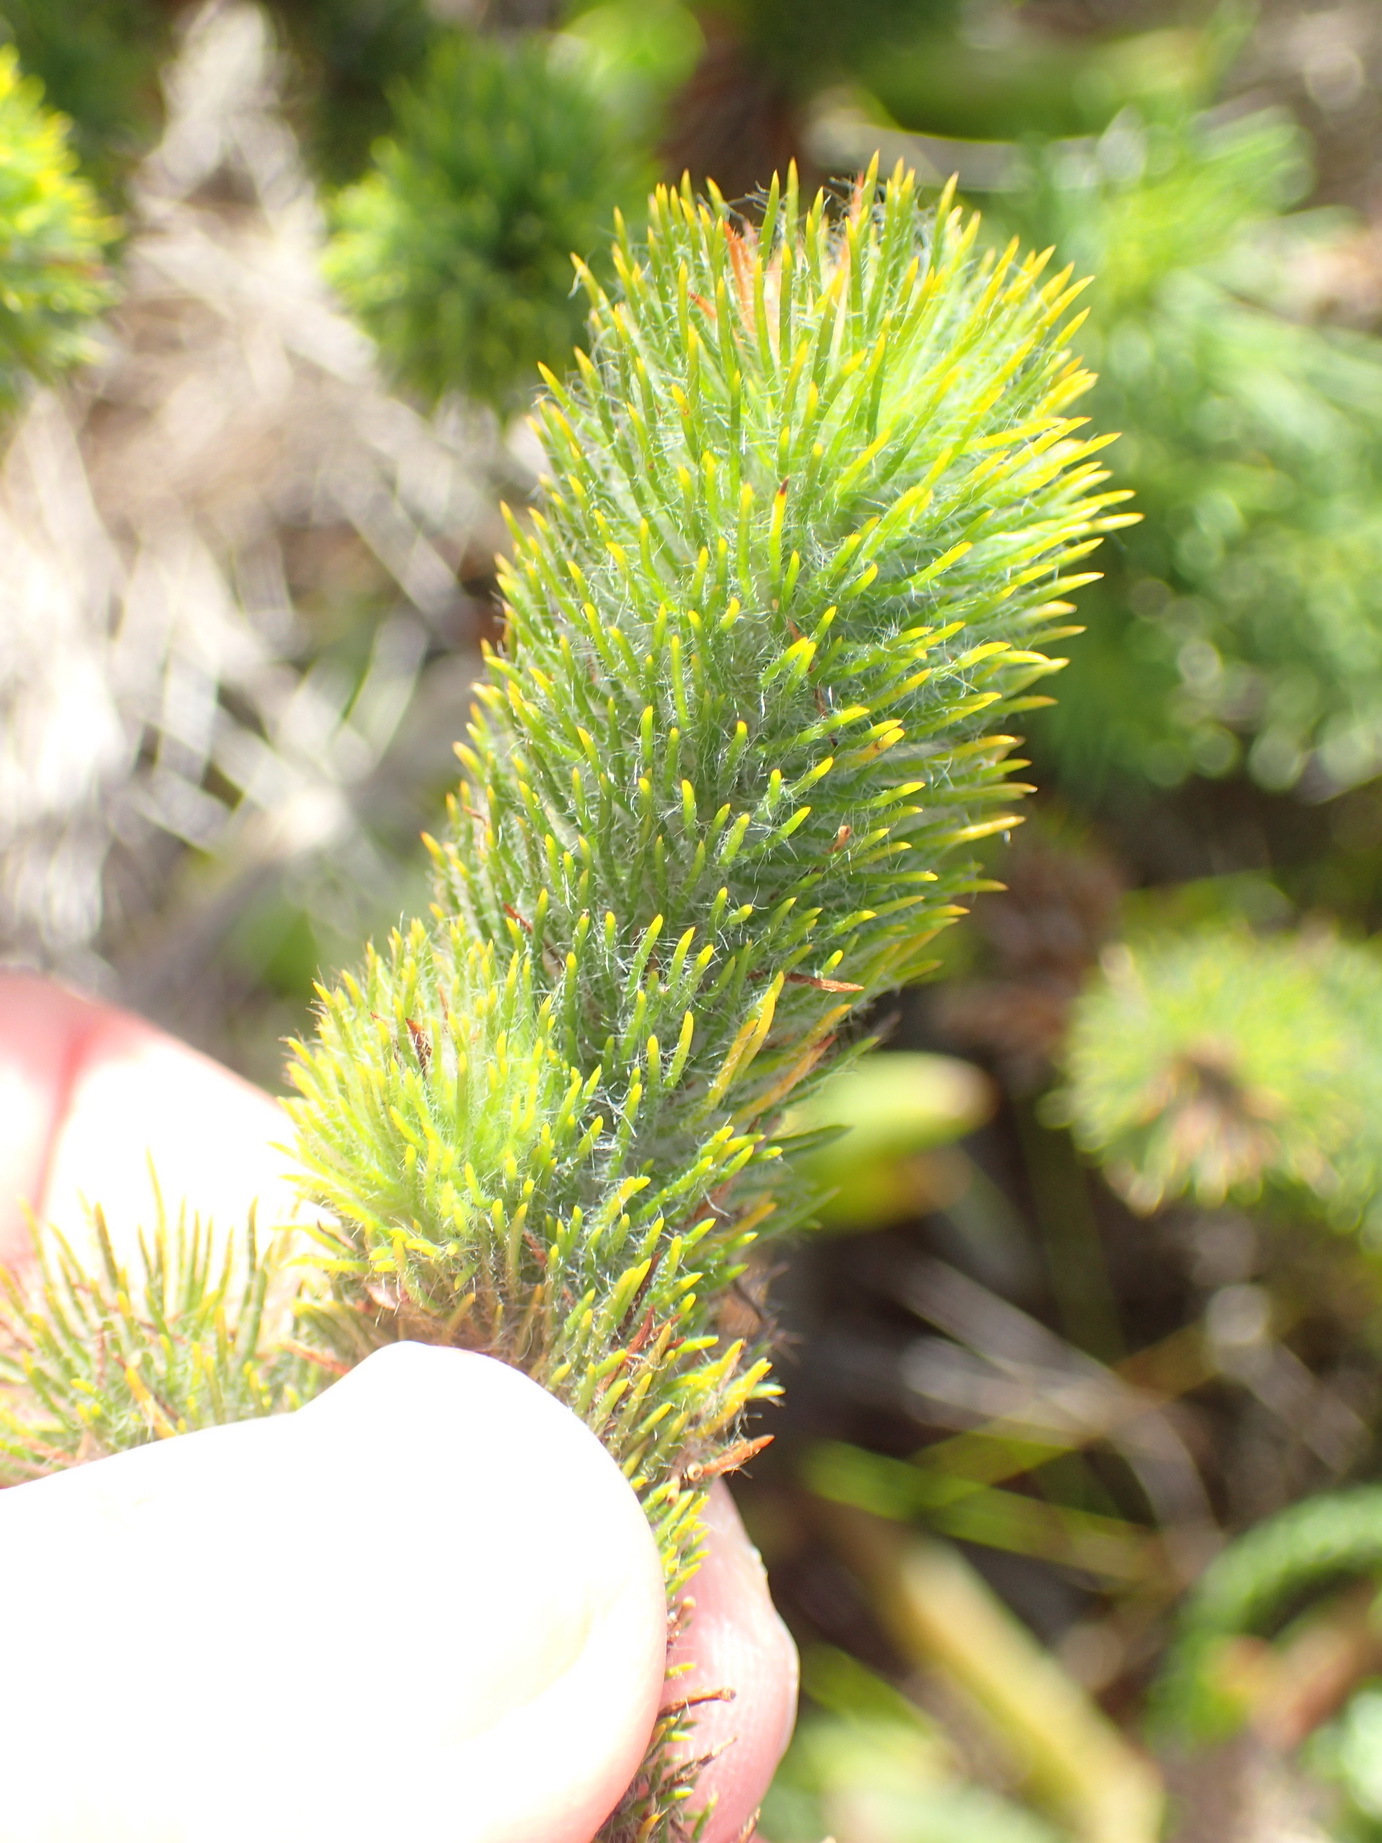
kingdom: Plantae
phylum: Tracheophyta
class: Magnoliopsida
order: Fabales
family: Fabaceae
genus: Aspalathus
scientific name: Aspalathus alopecurus
